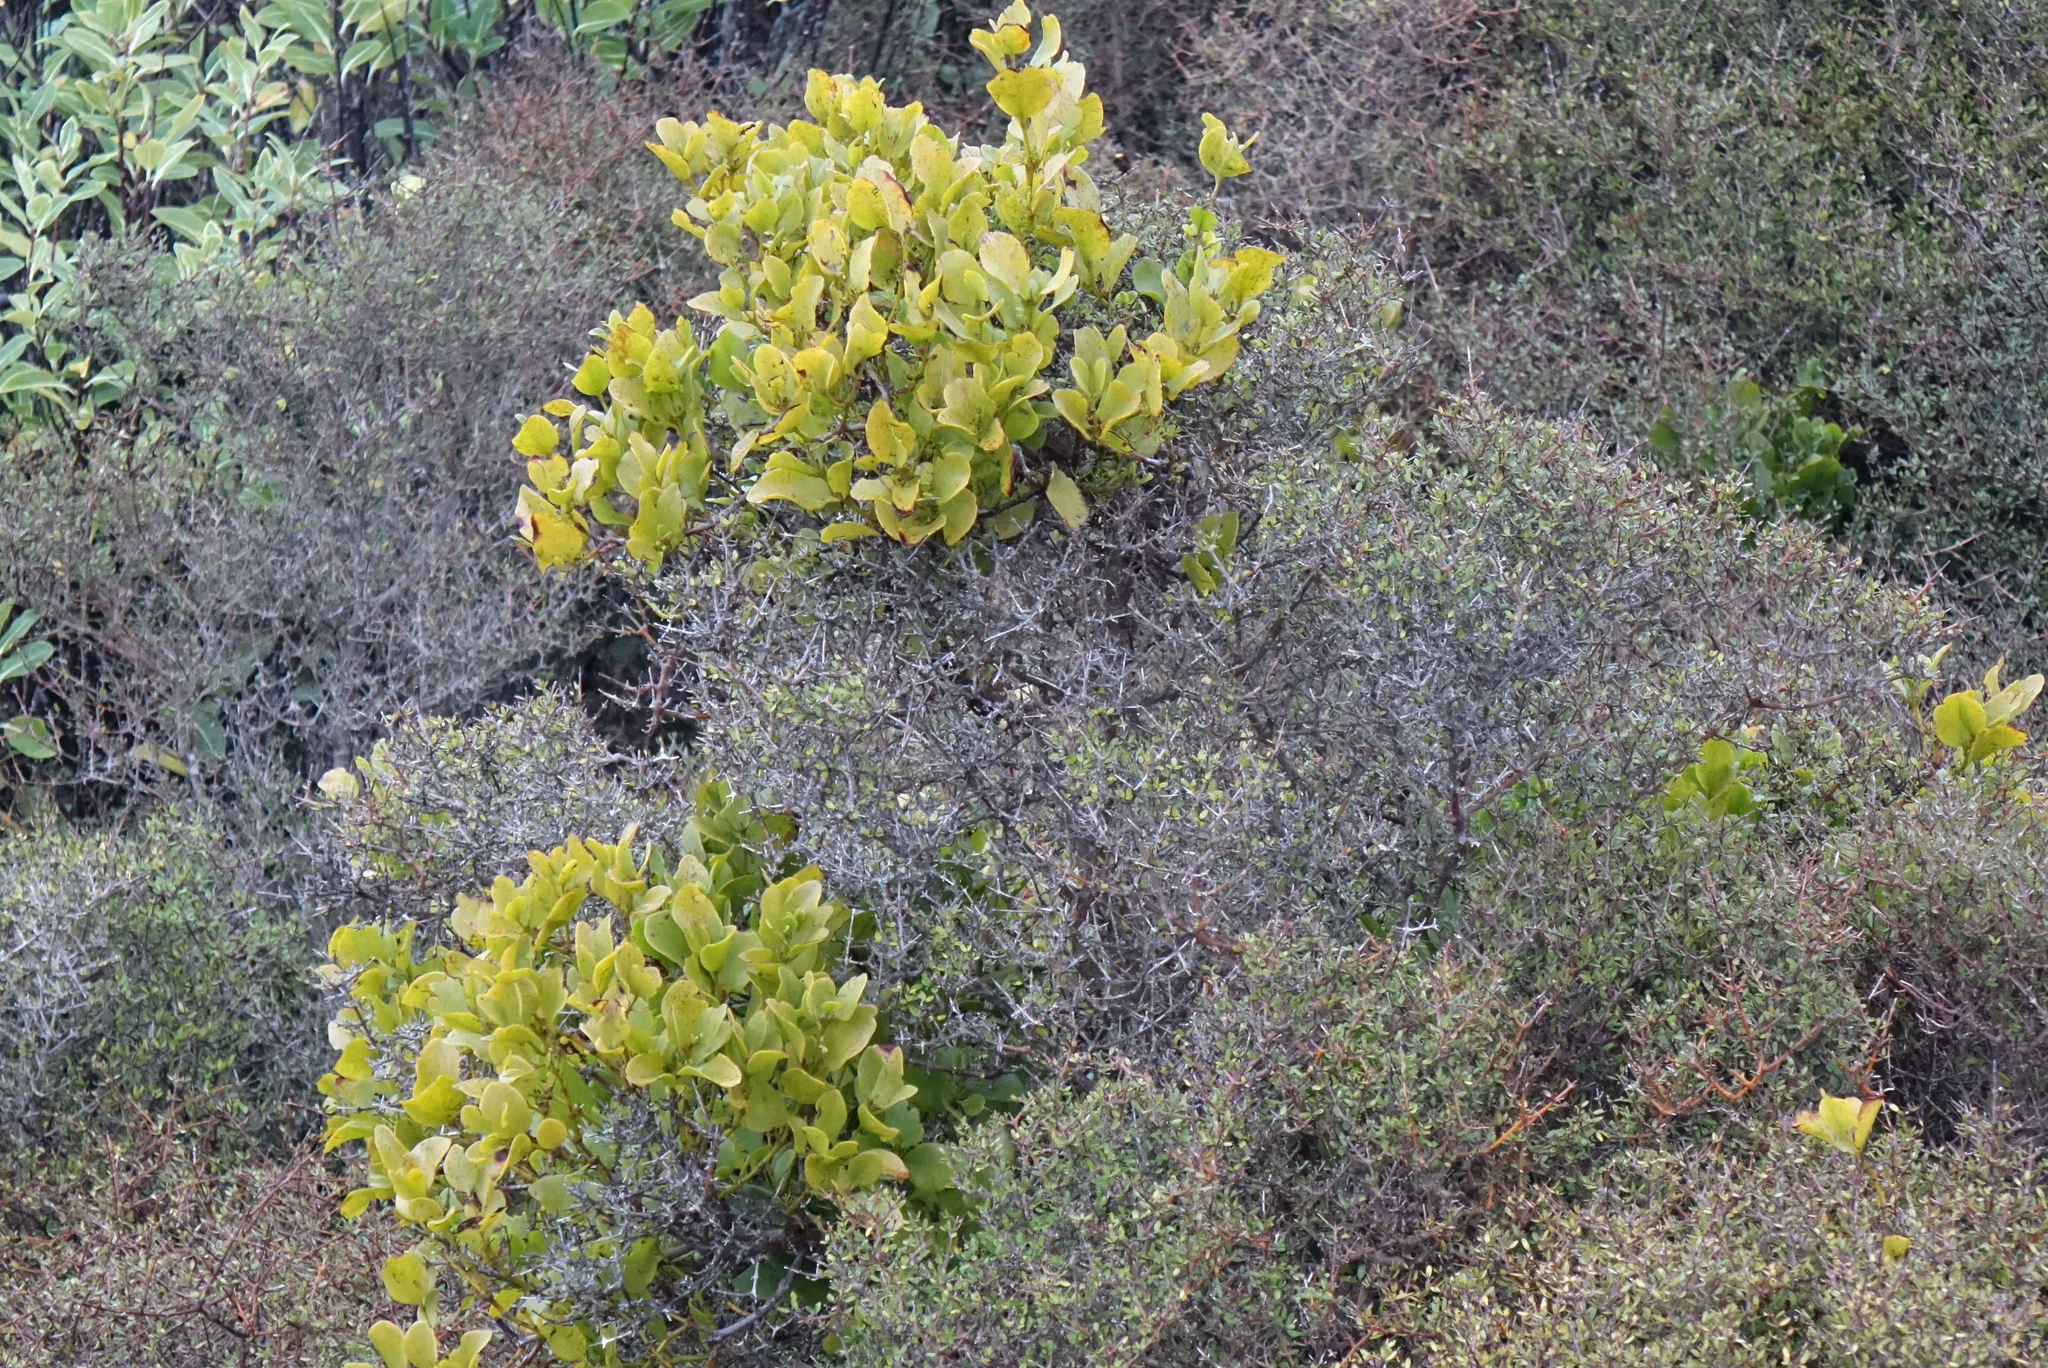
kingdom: Plantae
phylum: Tracheophyta
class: Magnoliopsida
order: Santalales
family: Loranthaceae
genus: Ileostylus
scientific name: Ileostylus micranthus
